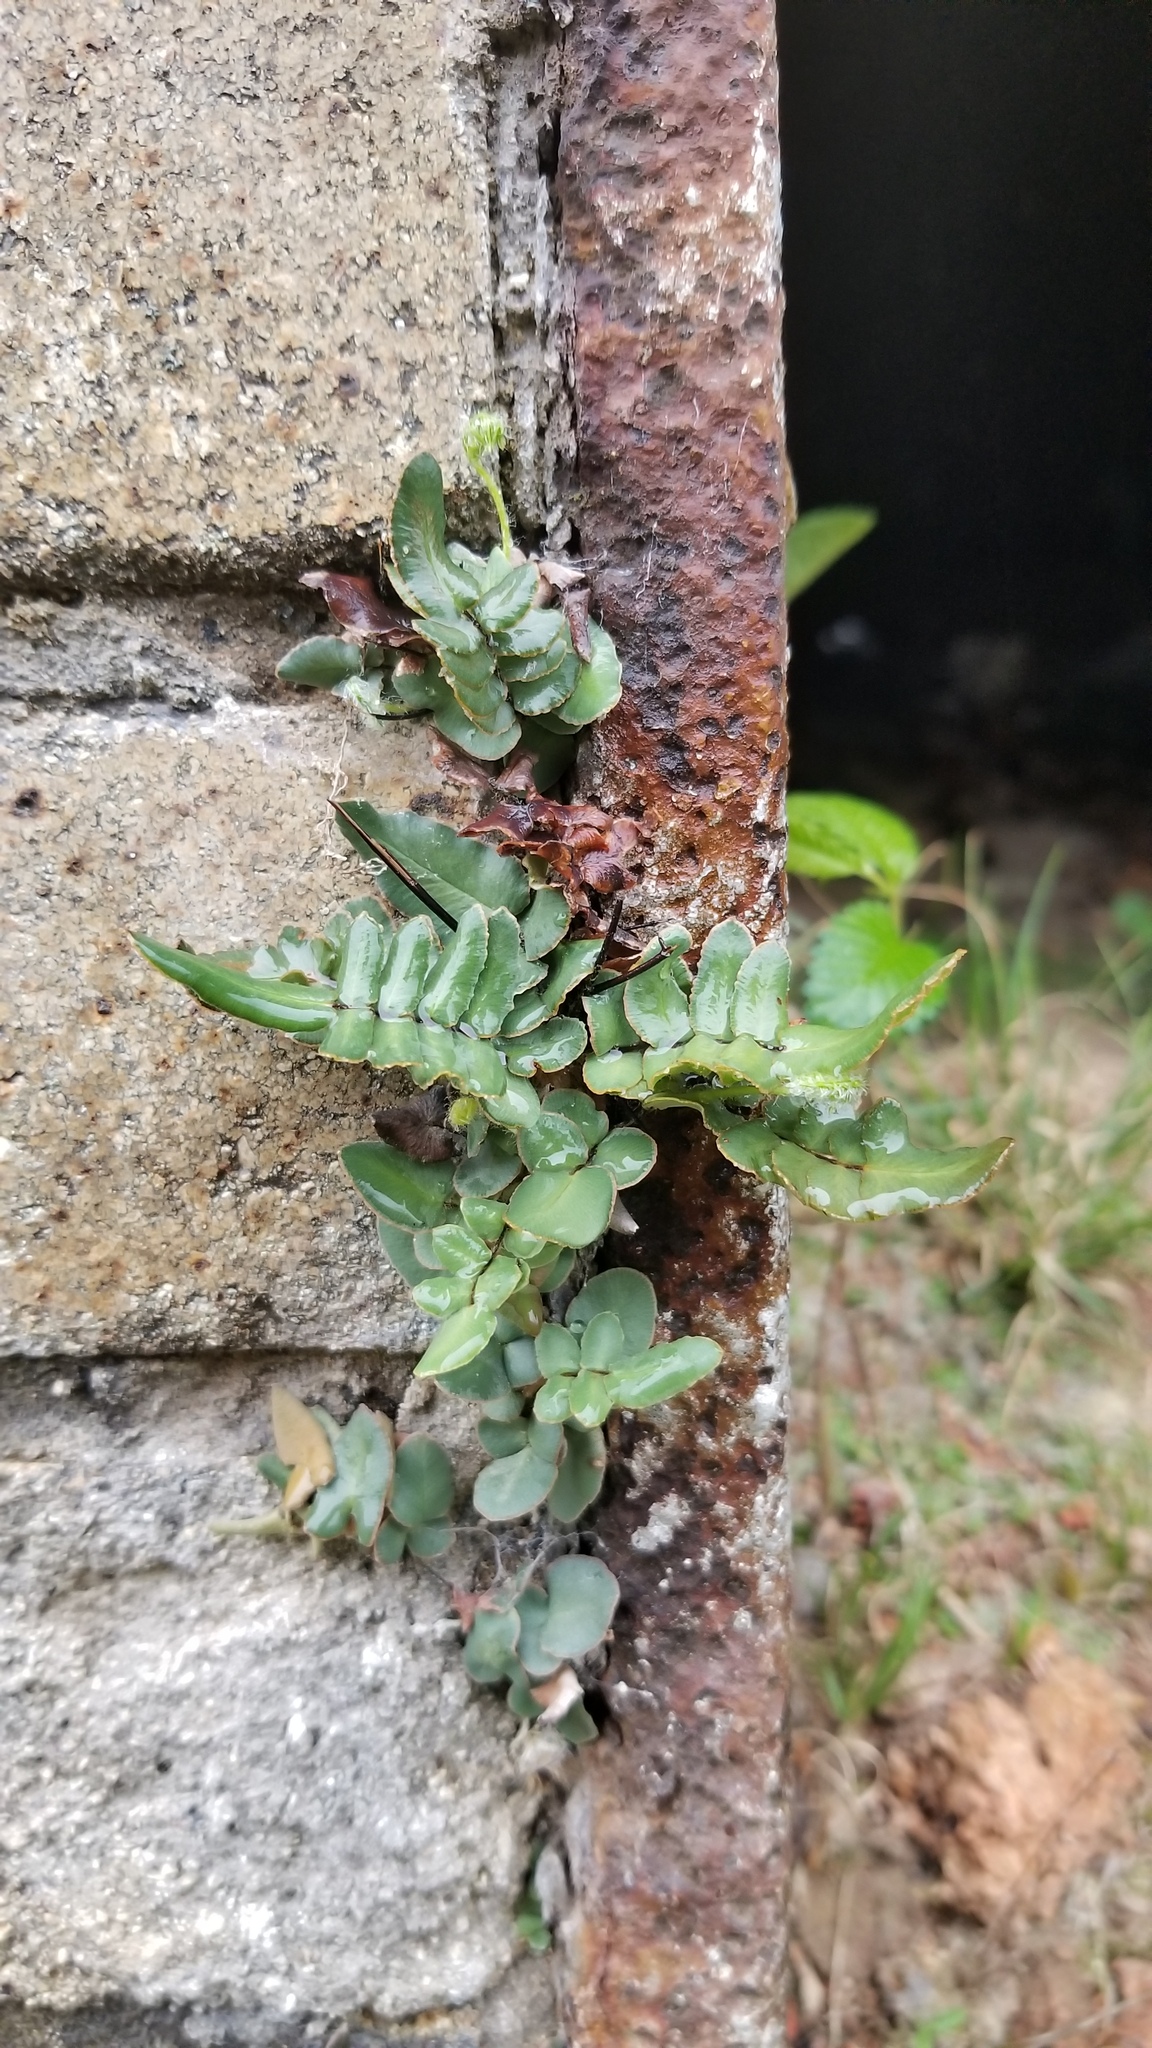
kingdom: Plantae
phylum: Tracheophyta
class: Polypodiopsida
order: Polypodiales
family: Pteridaceae
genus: Pellaea
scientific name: Pellaea atropurpurea
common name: Hairy cliffbrake
